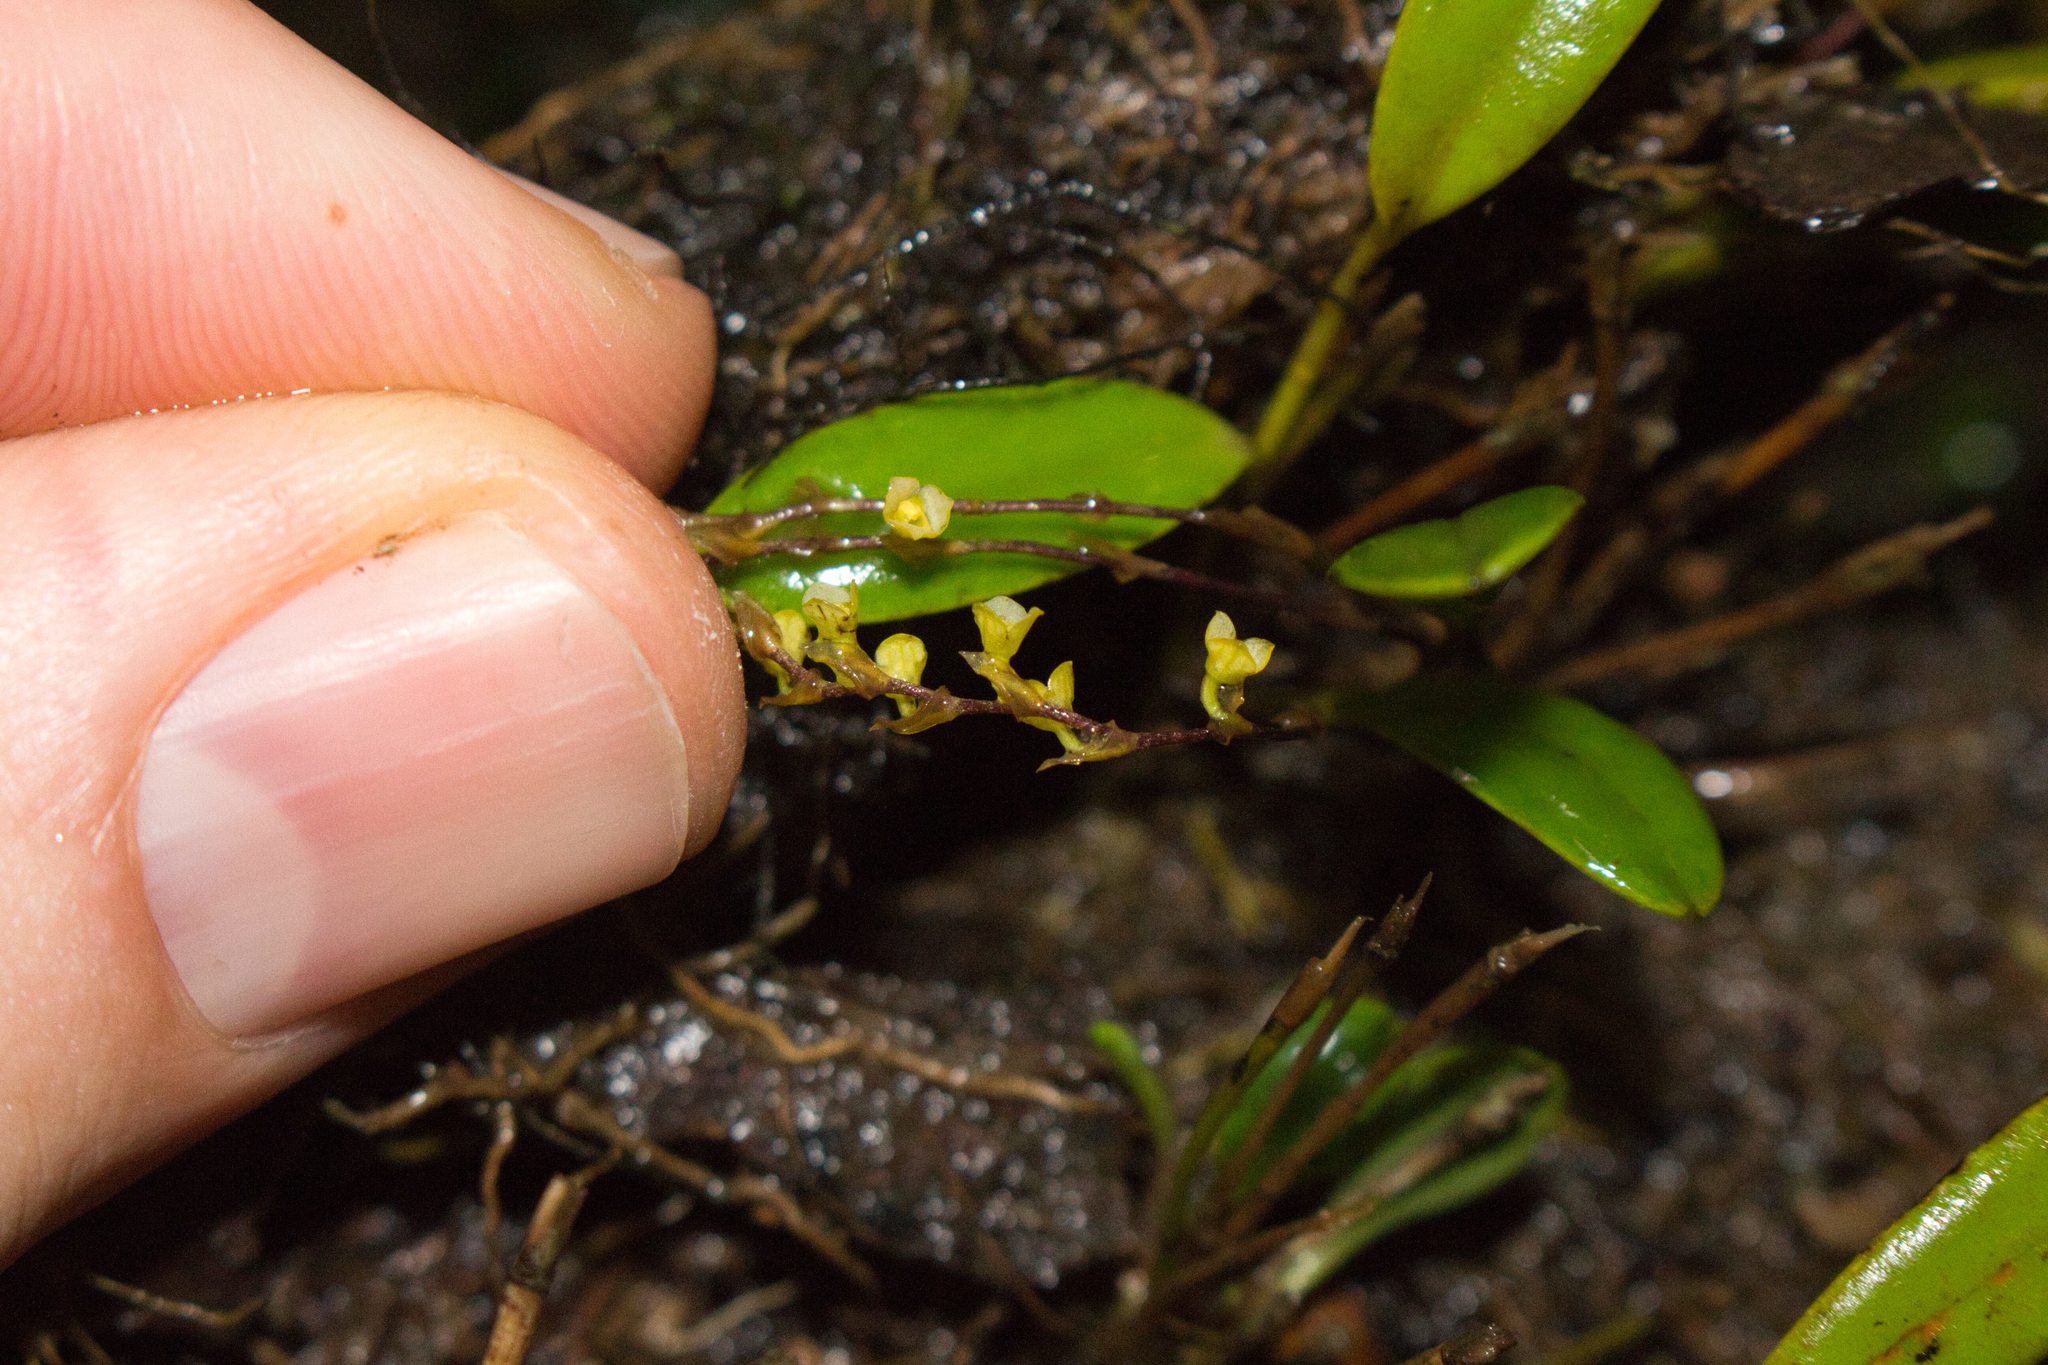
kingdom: Plantae
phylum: Tracheophyta
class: Liliopsida
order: Asparagales
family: Orchidaceae
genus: Stelis
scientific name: Stelis
